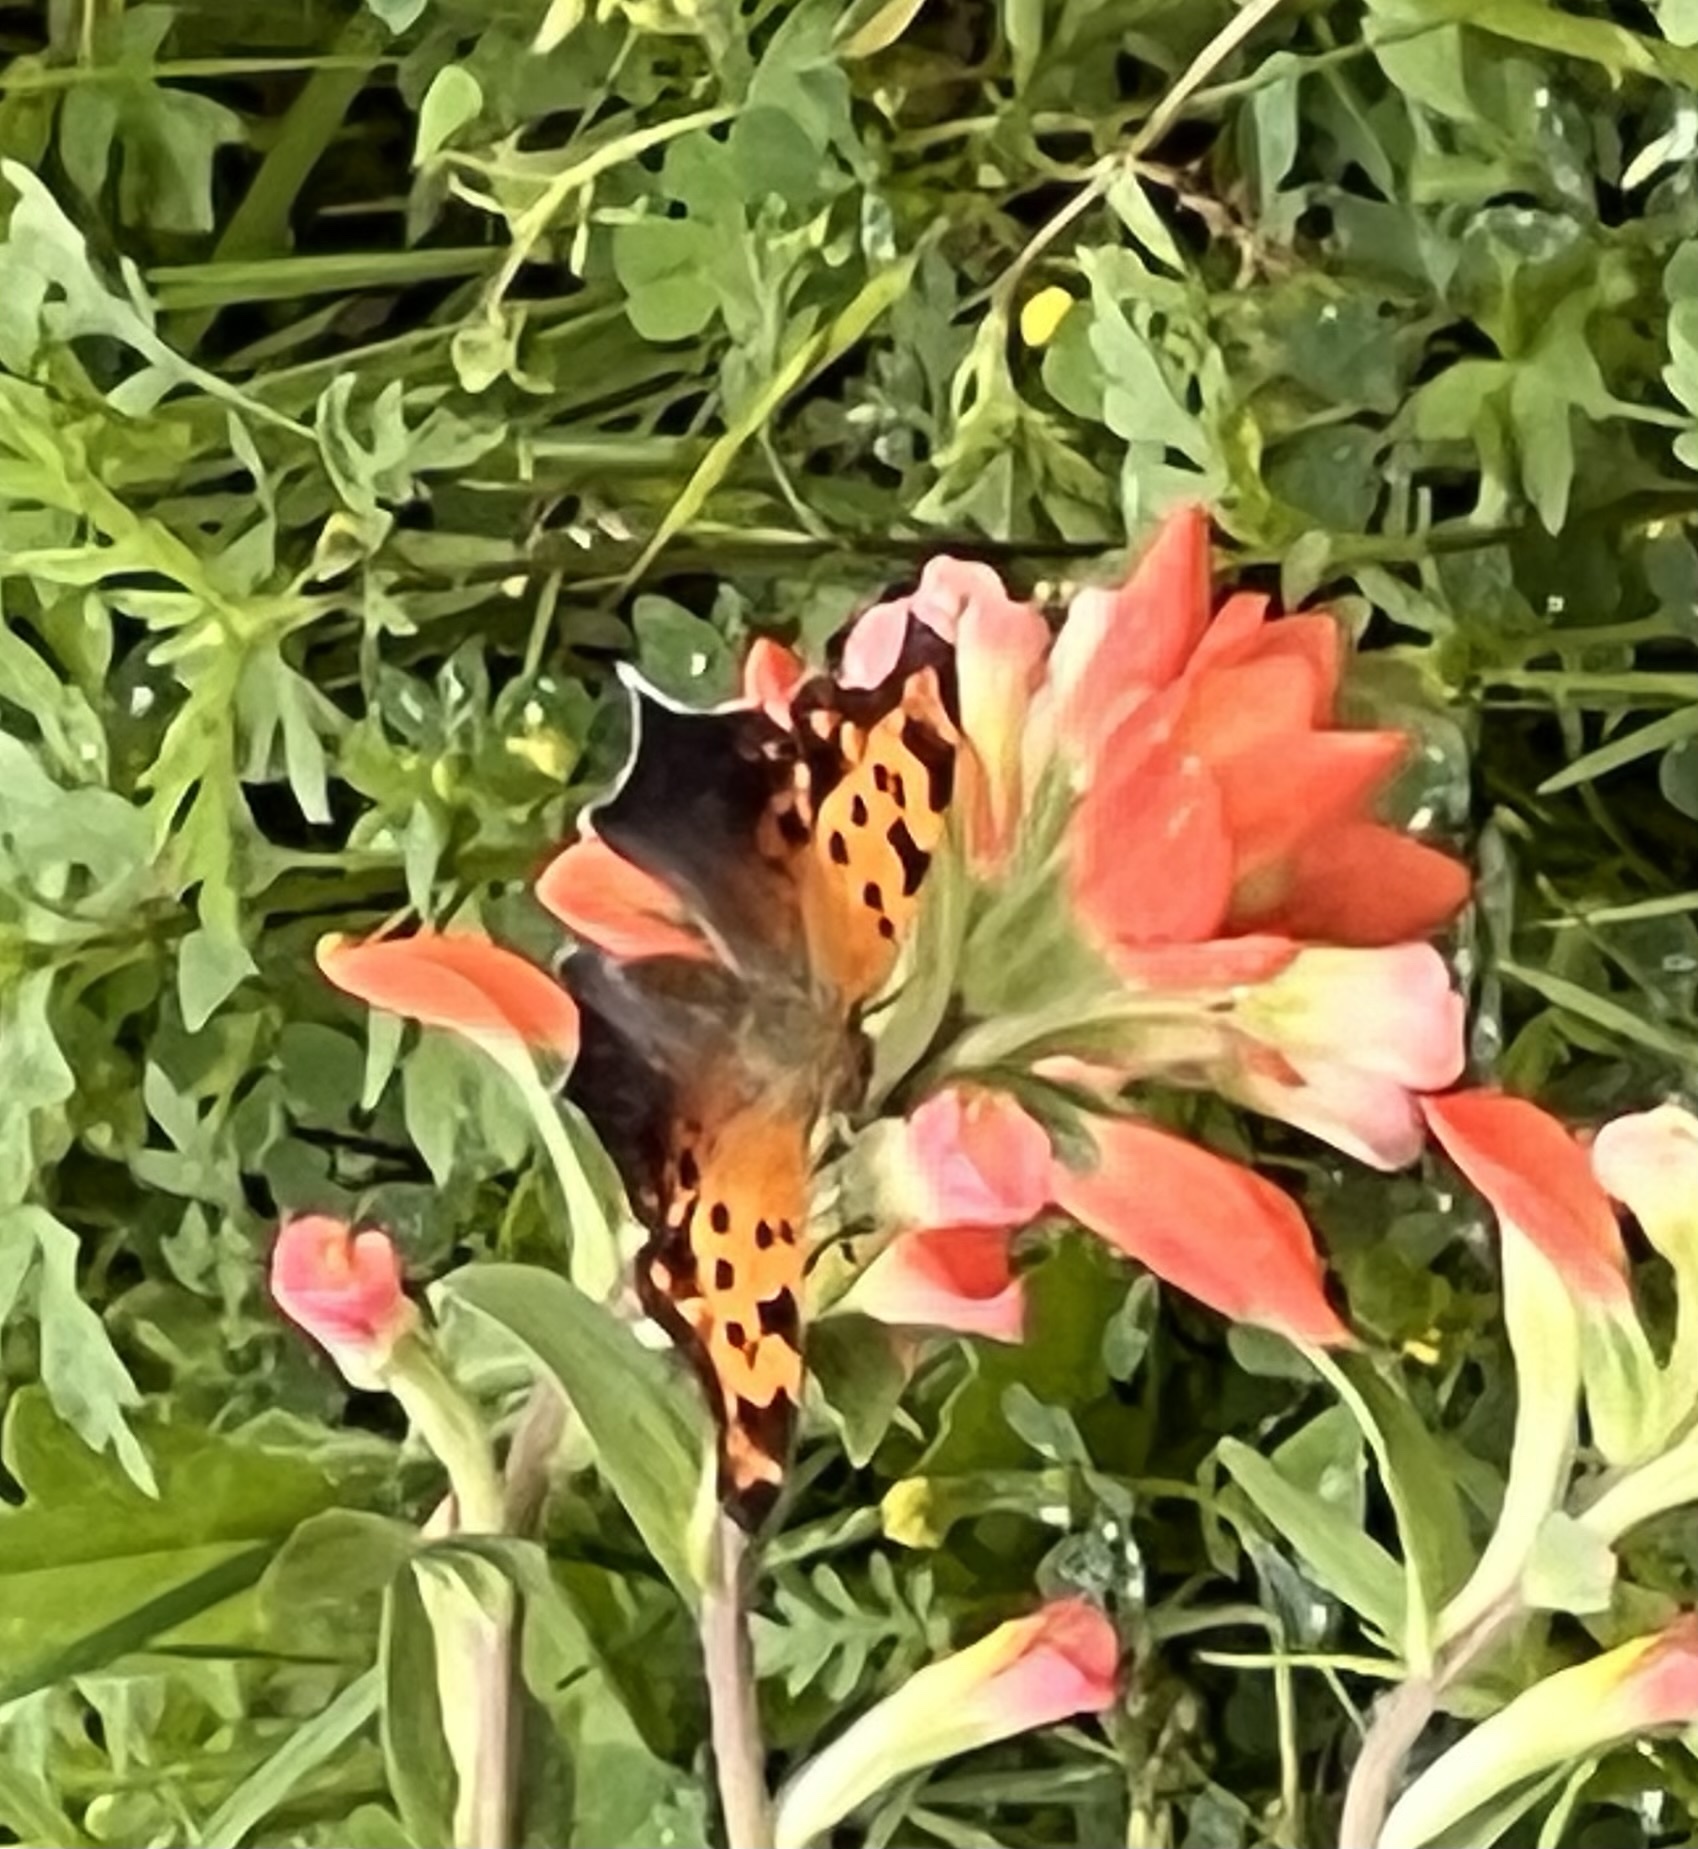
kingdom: Animalia
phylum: Arthropoda
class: Insecta
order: Lepidoptera
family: Nymphalidae
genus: Polygonia
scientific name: Polygonia interrogationis
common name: Question mark
